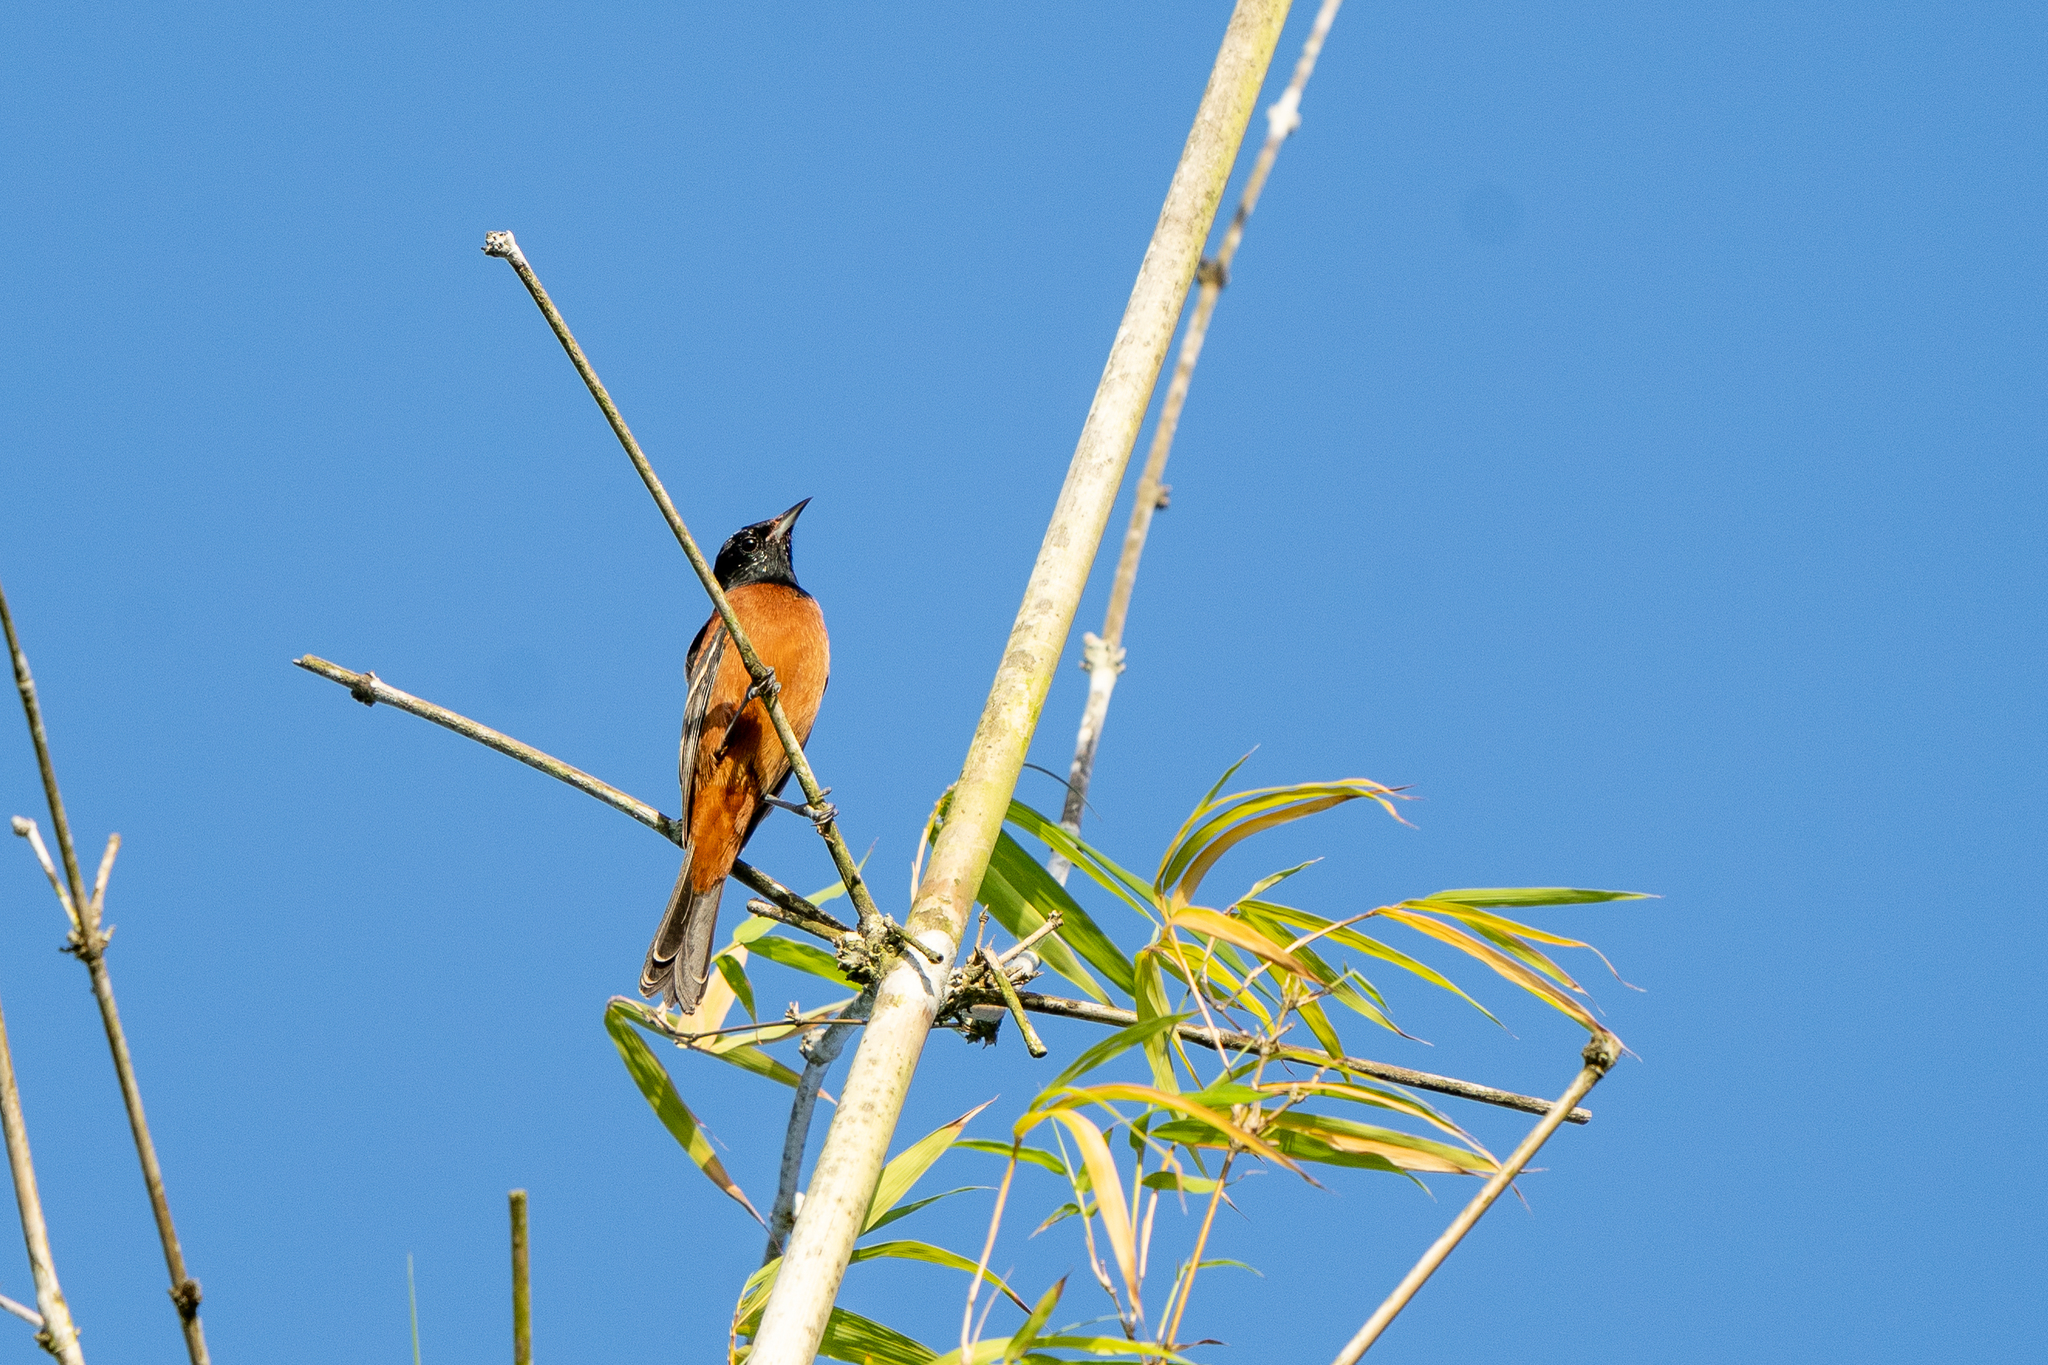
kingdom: Animalia
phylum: Chordata
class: Aves
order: Passeriformes
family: Icteridae
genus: Icterus
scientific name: Icterus spurius
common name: Orchard oriole
